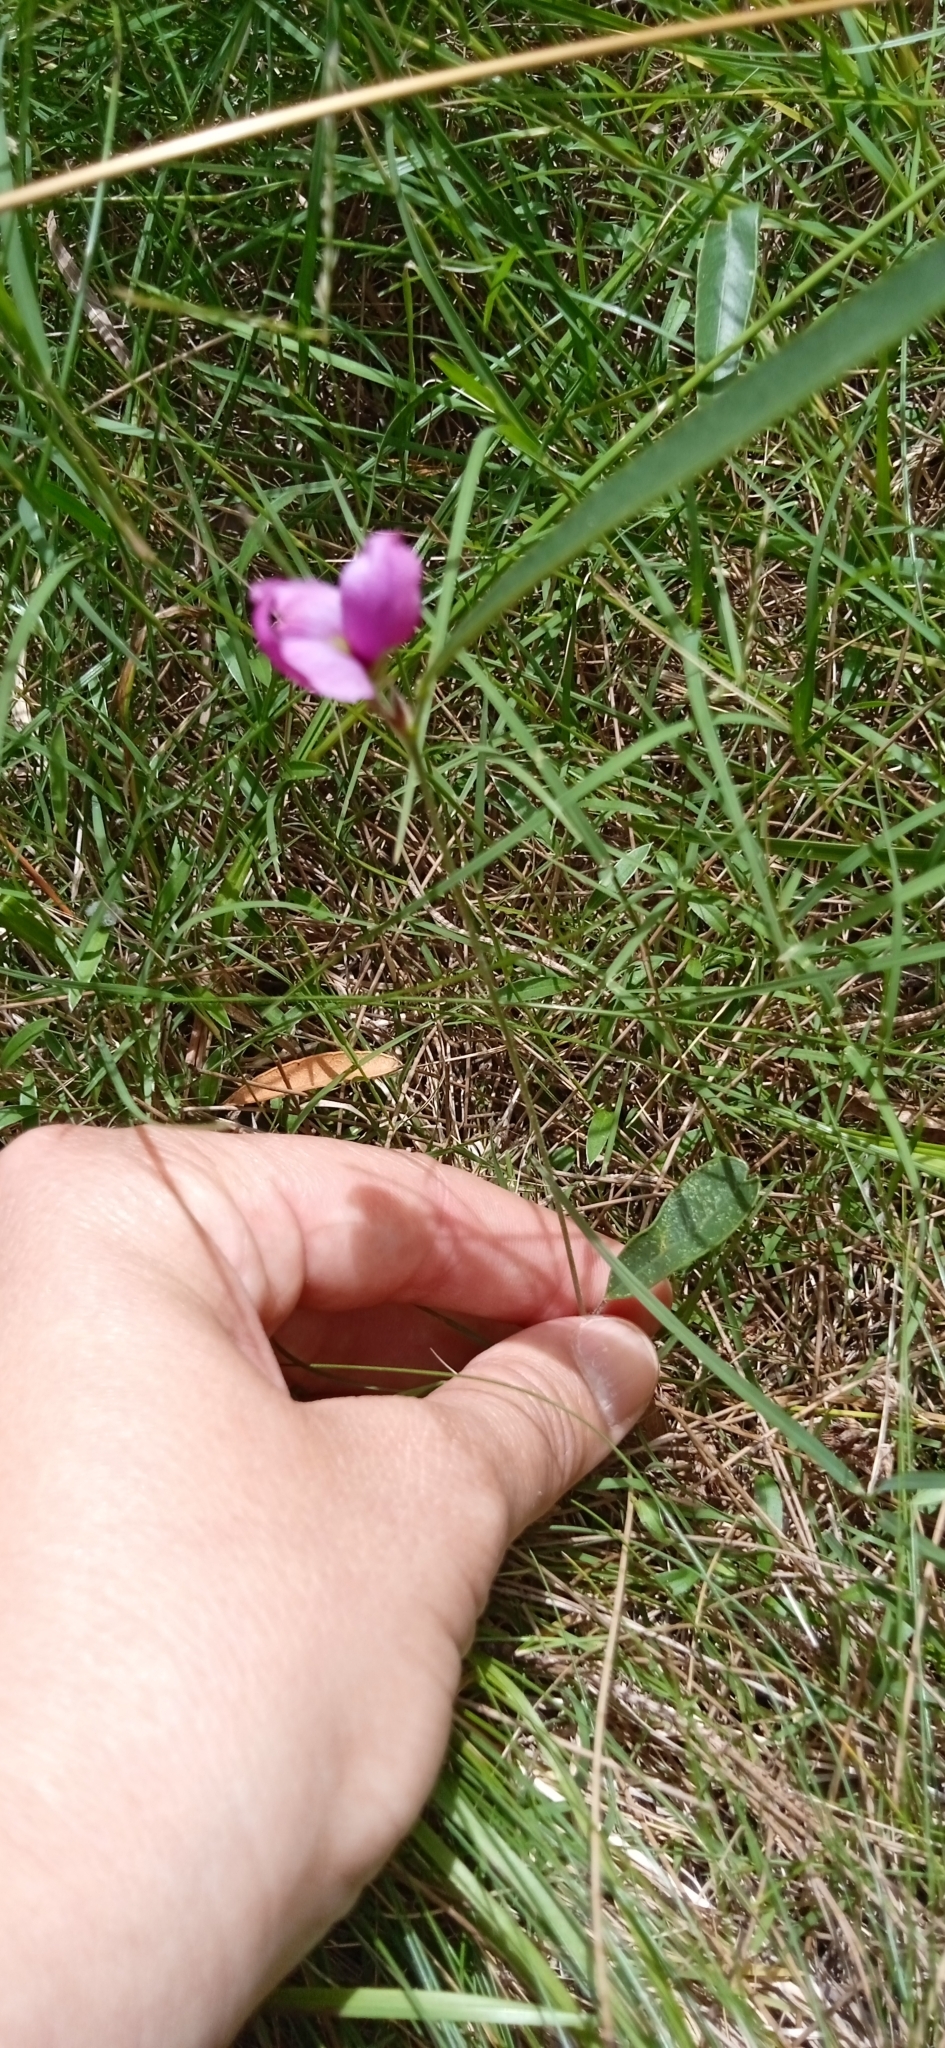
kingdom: Plantae
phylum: Tracheophyta
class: Magnoliopsida
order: Fabales
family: Fabaceae
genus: Nanogalactia
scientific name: Nanogalactia heterophylla
